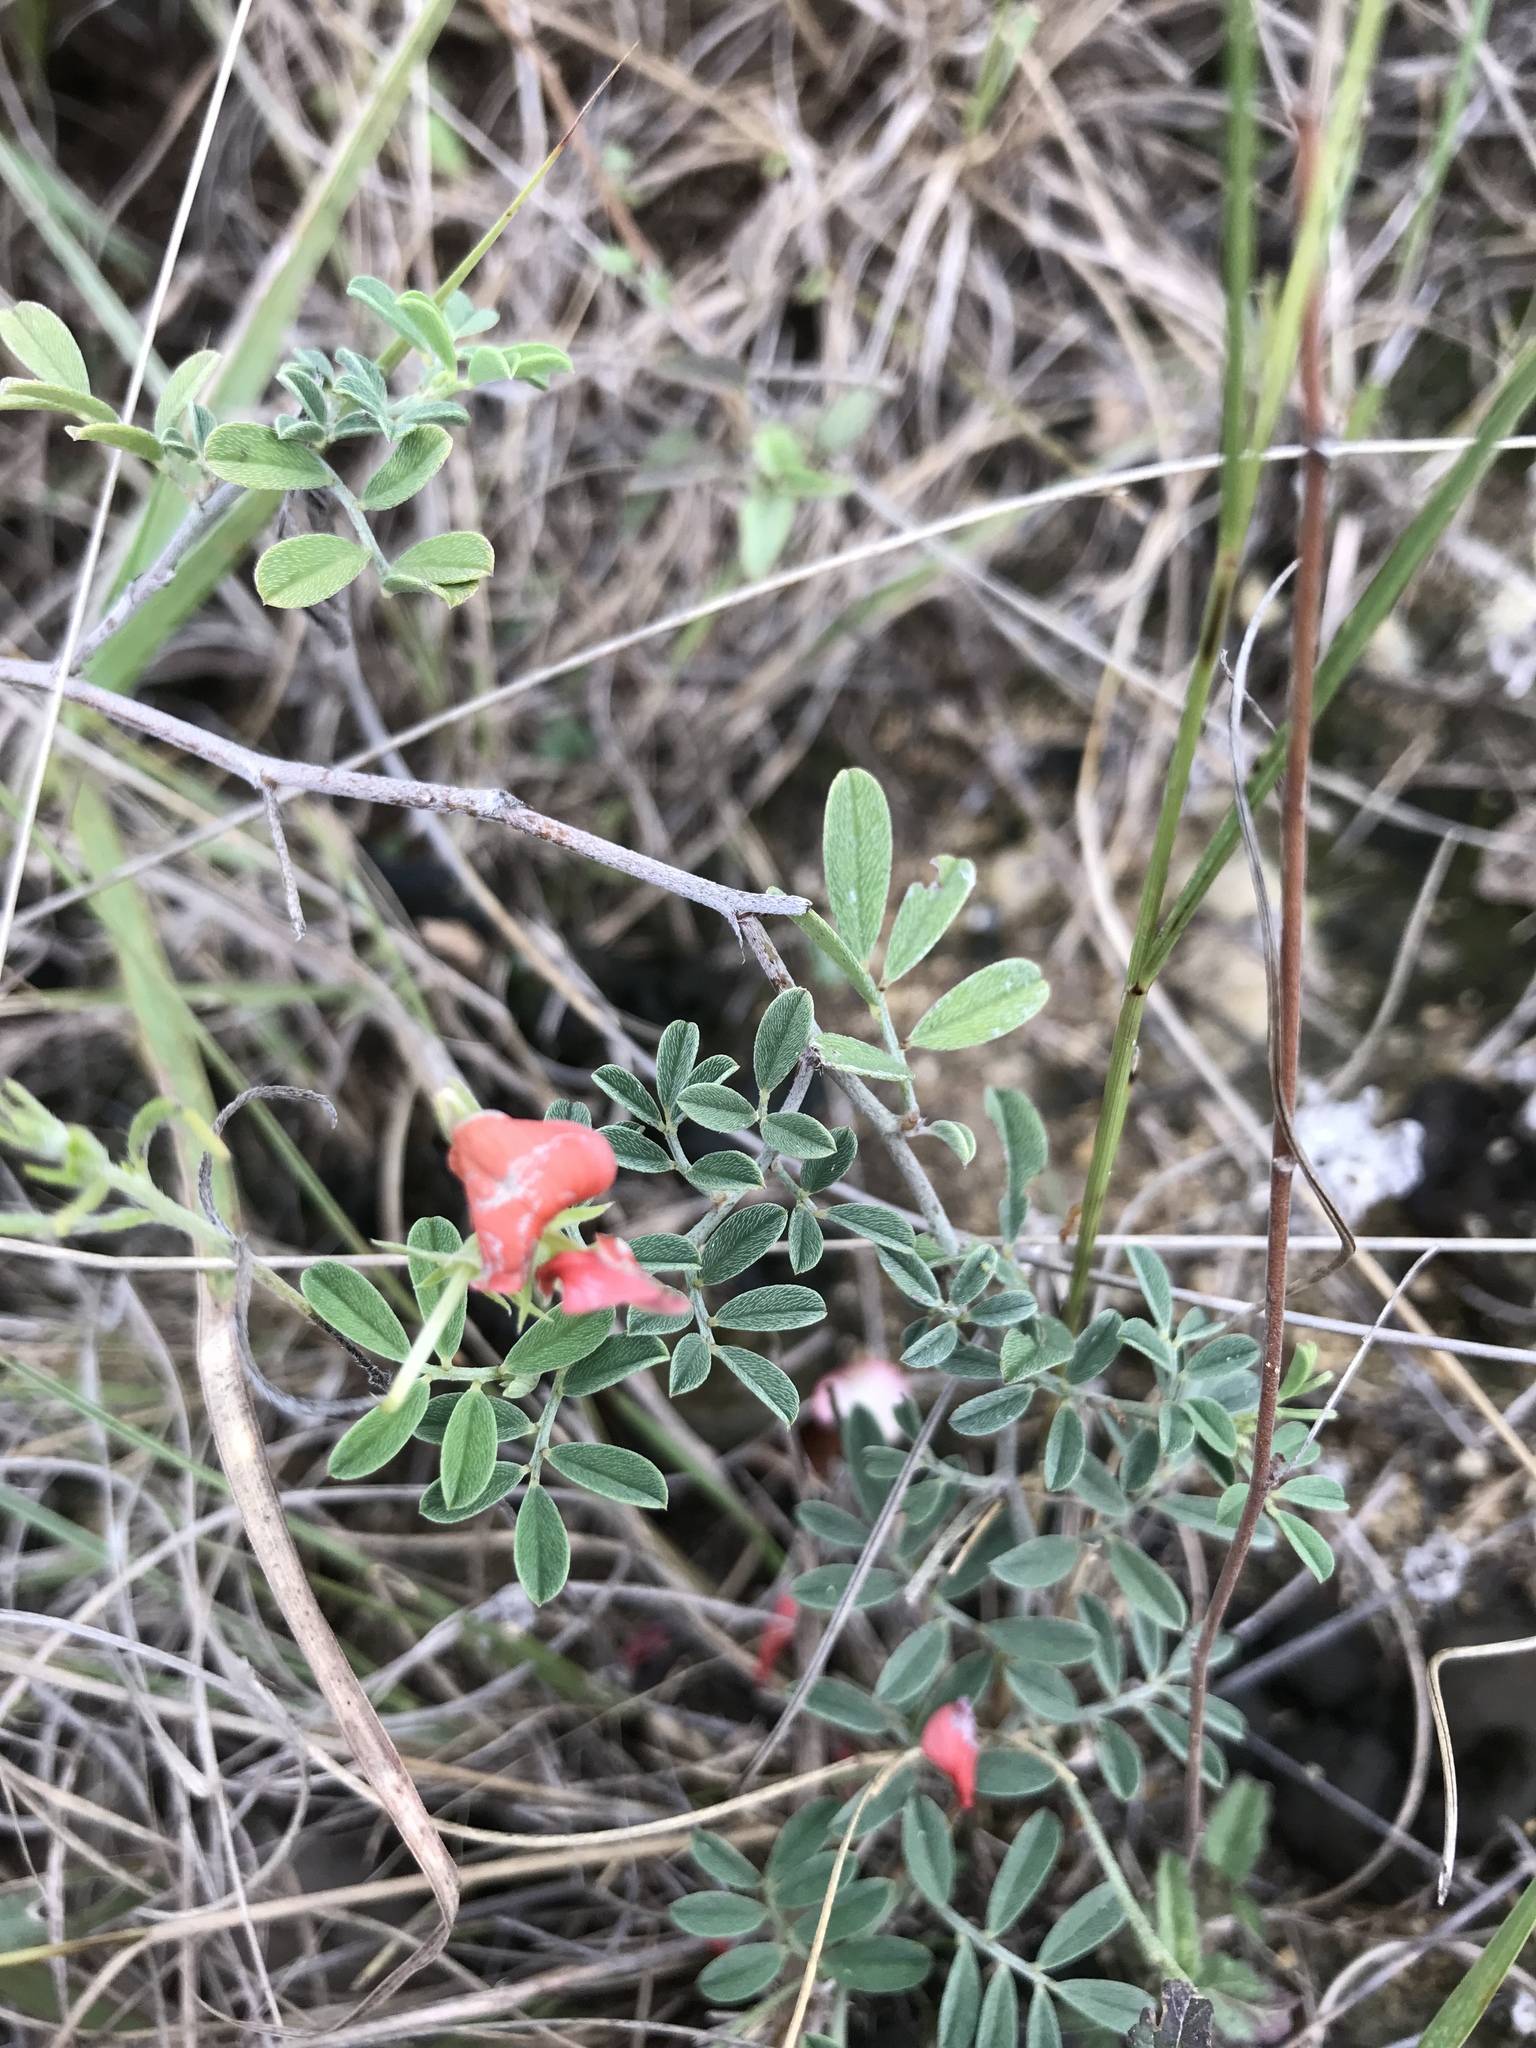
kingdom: Plantae
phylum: Tracheophyta
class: Magnoliopsida
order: Fabales
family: Fabaceae
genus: Indigofera
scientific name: Indigofera miniata
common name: Coast indigo
